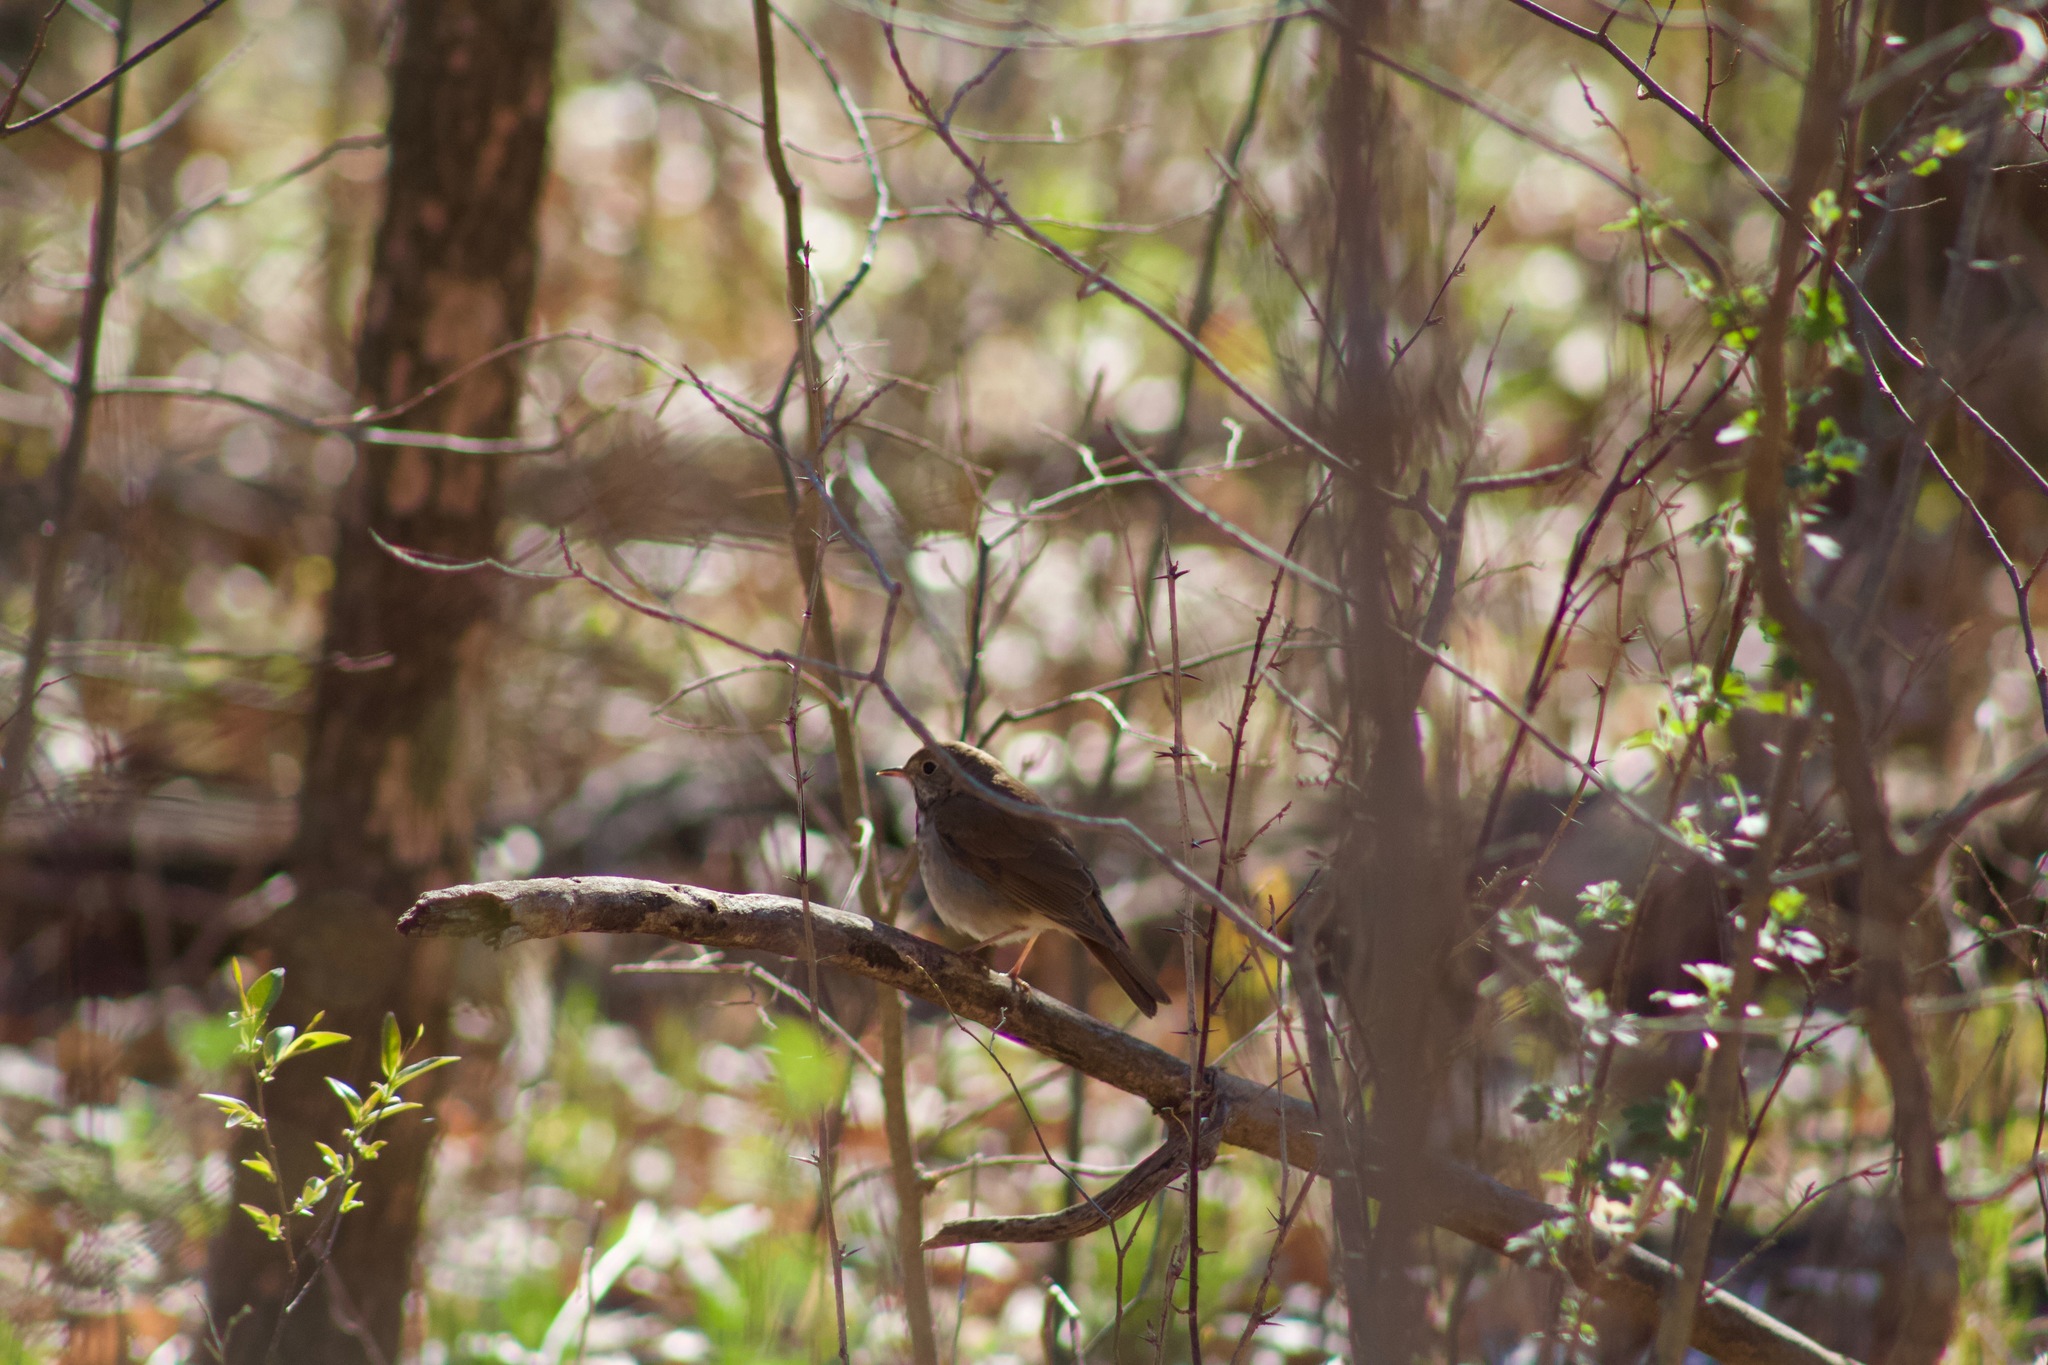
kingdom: Animalia
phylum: Chordata
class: Aves
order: Passeriformes
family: Turdidae
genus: Catharus
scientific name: Catharus guttatus
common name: Hermit thrush
